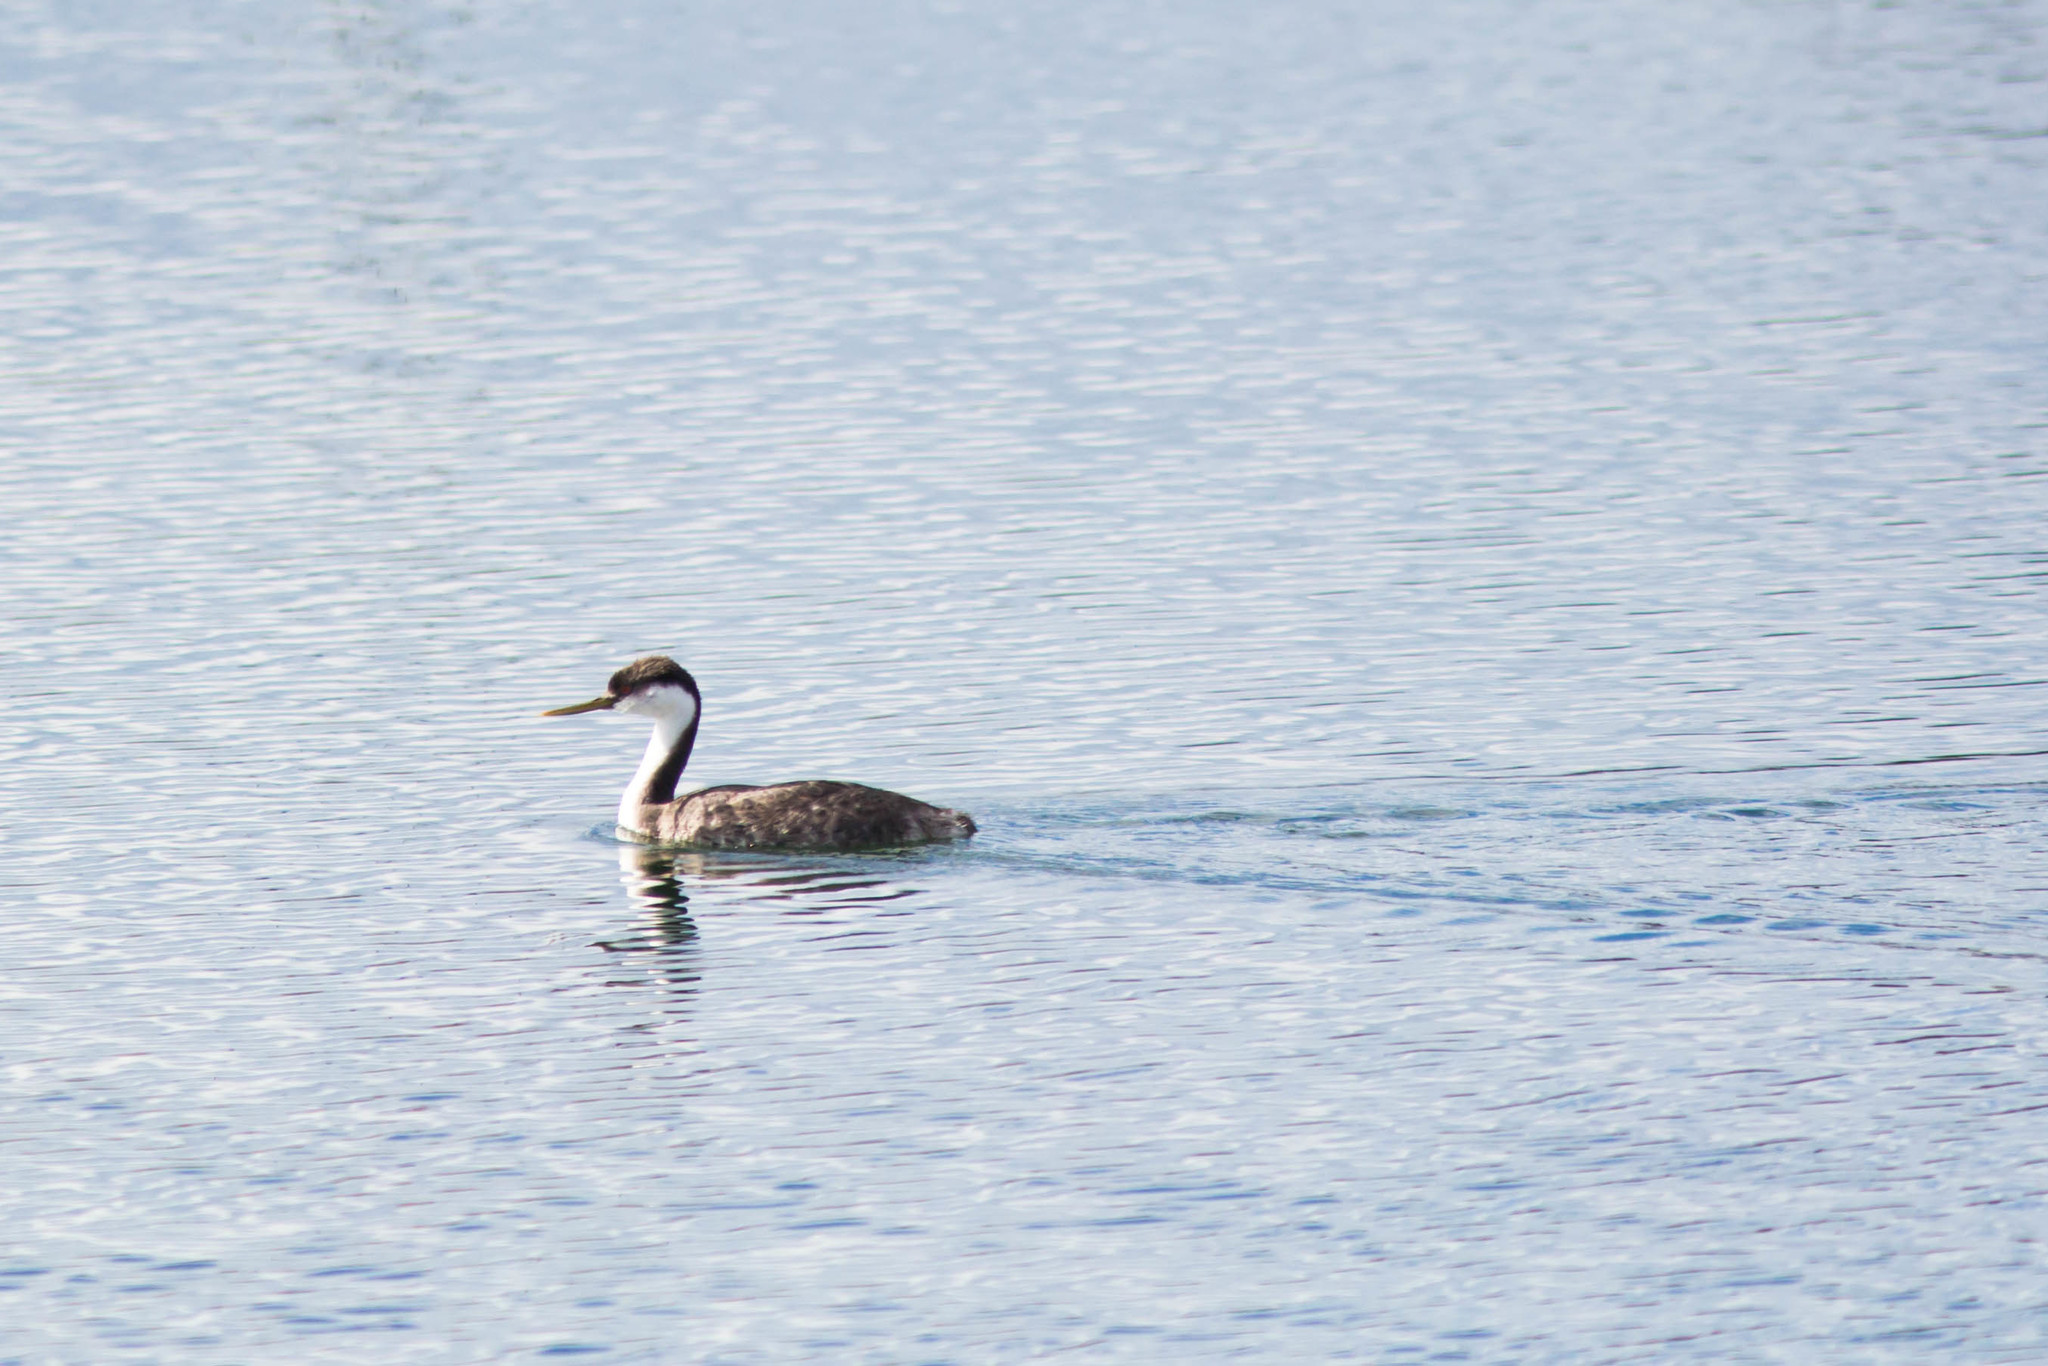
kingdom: Animalia
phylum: Chordata
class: Aves
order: Podicipediformes
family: Podicipedidae
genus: Aechmophorus
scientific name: Aechmophorus occidentalis
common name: Western grebe
